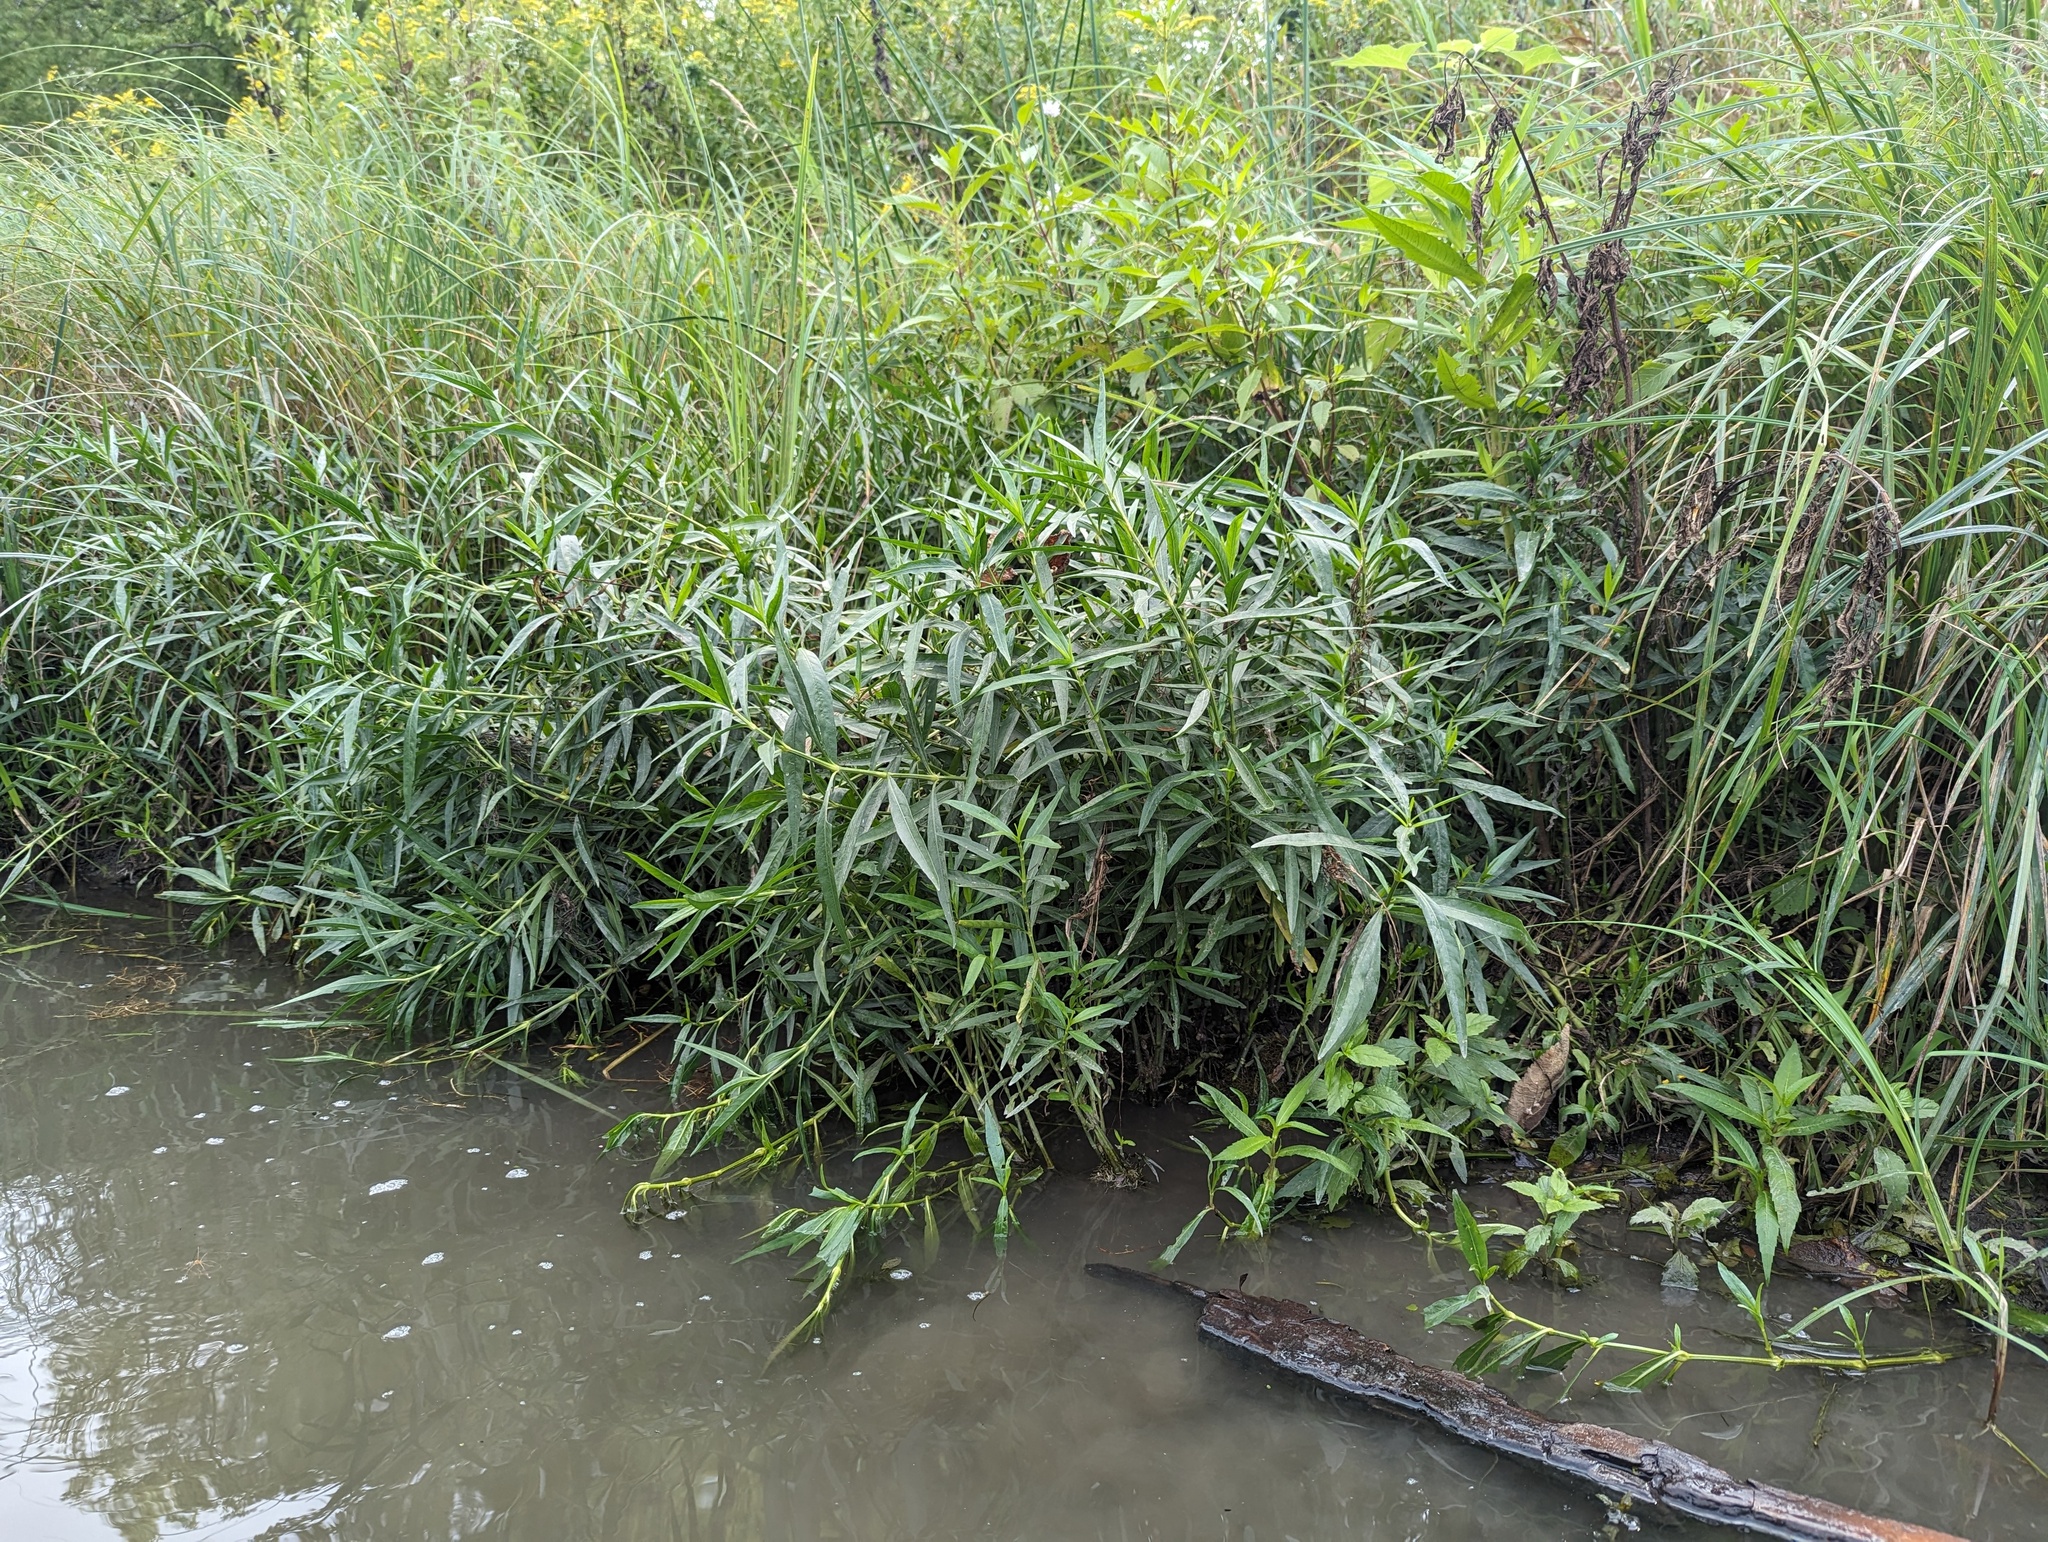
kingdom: Plantae
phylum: Tracheophyta
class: Magnoliopsida
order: Lamiales
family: Acanthaceae
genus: Dianthera
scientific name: Dianthera americana
